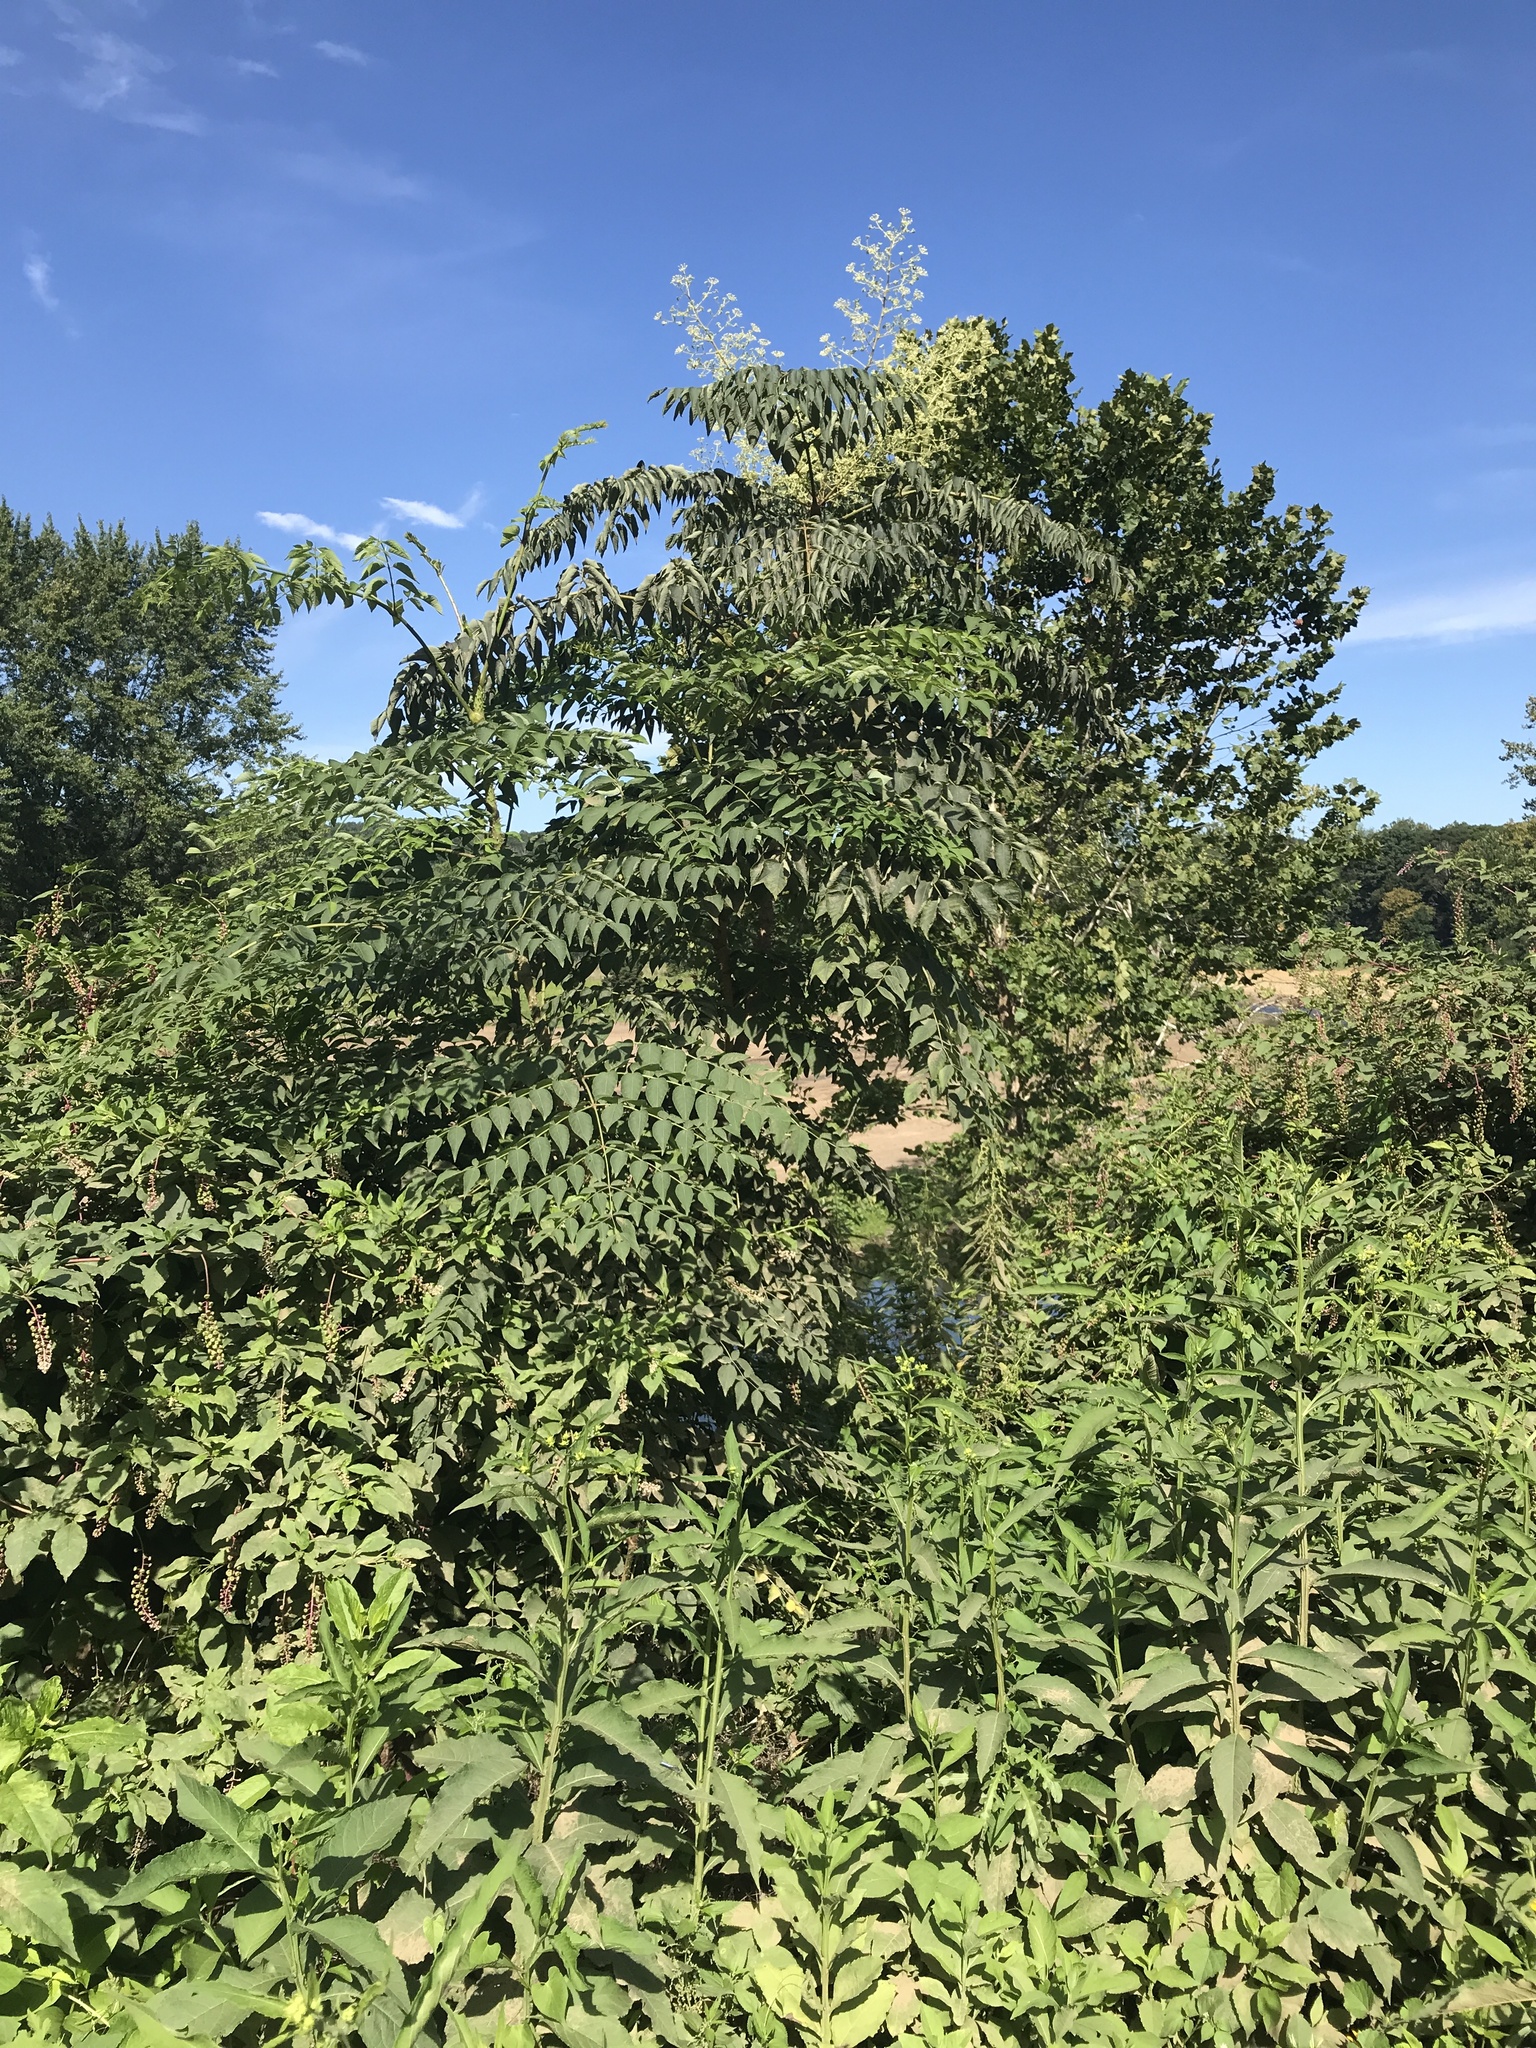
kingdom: Plantae
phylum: Tracheophyta
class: Magnoliopsida
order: Apiales
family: Araliaceae
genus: Aralia
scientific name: Aralia elata
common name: Japanese angelica-tree
